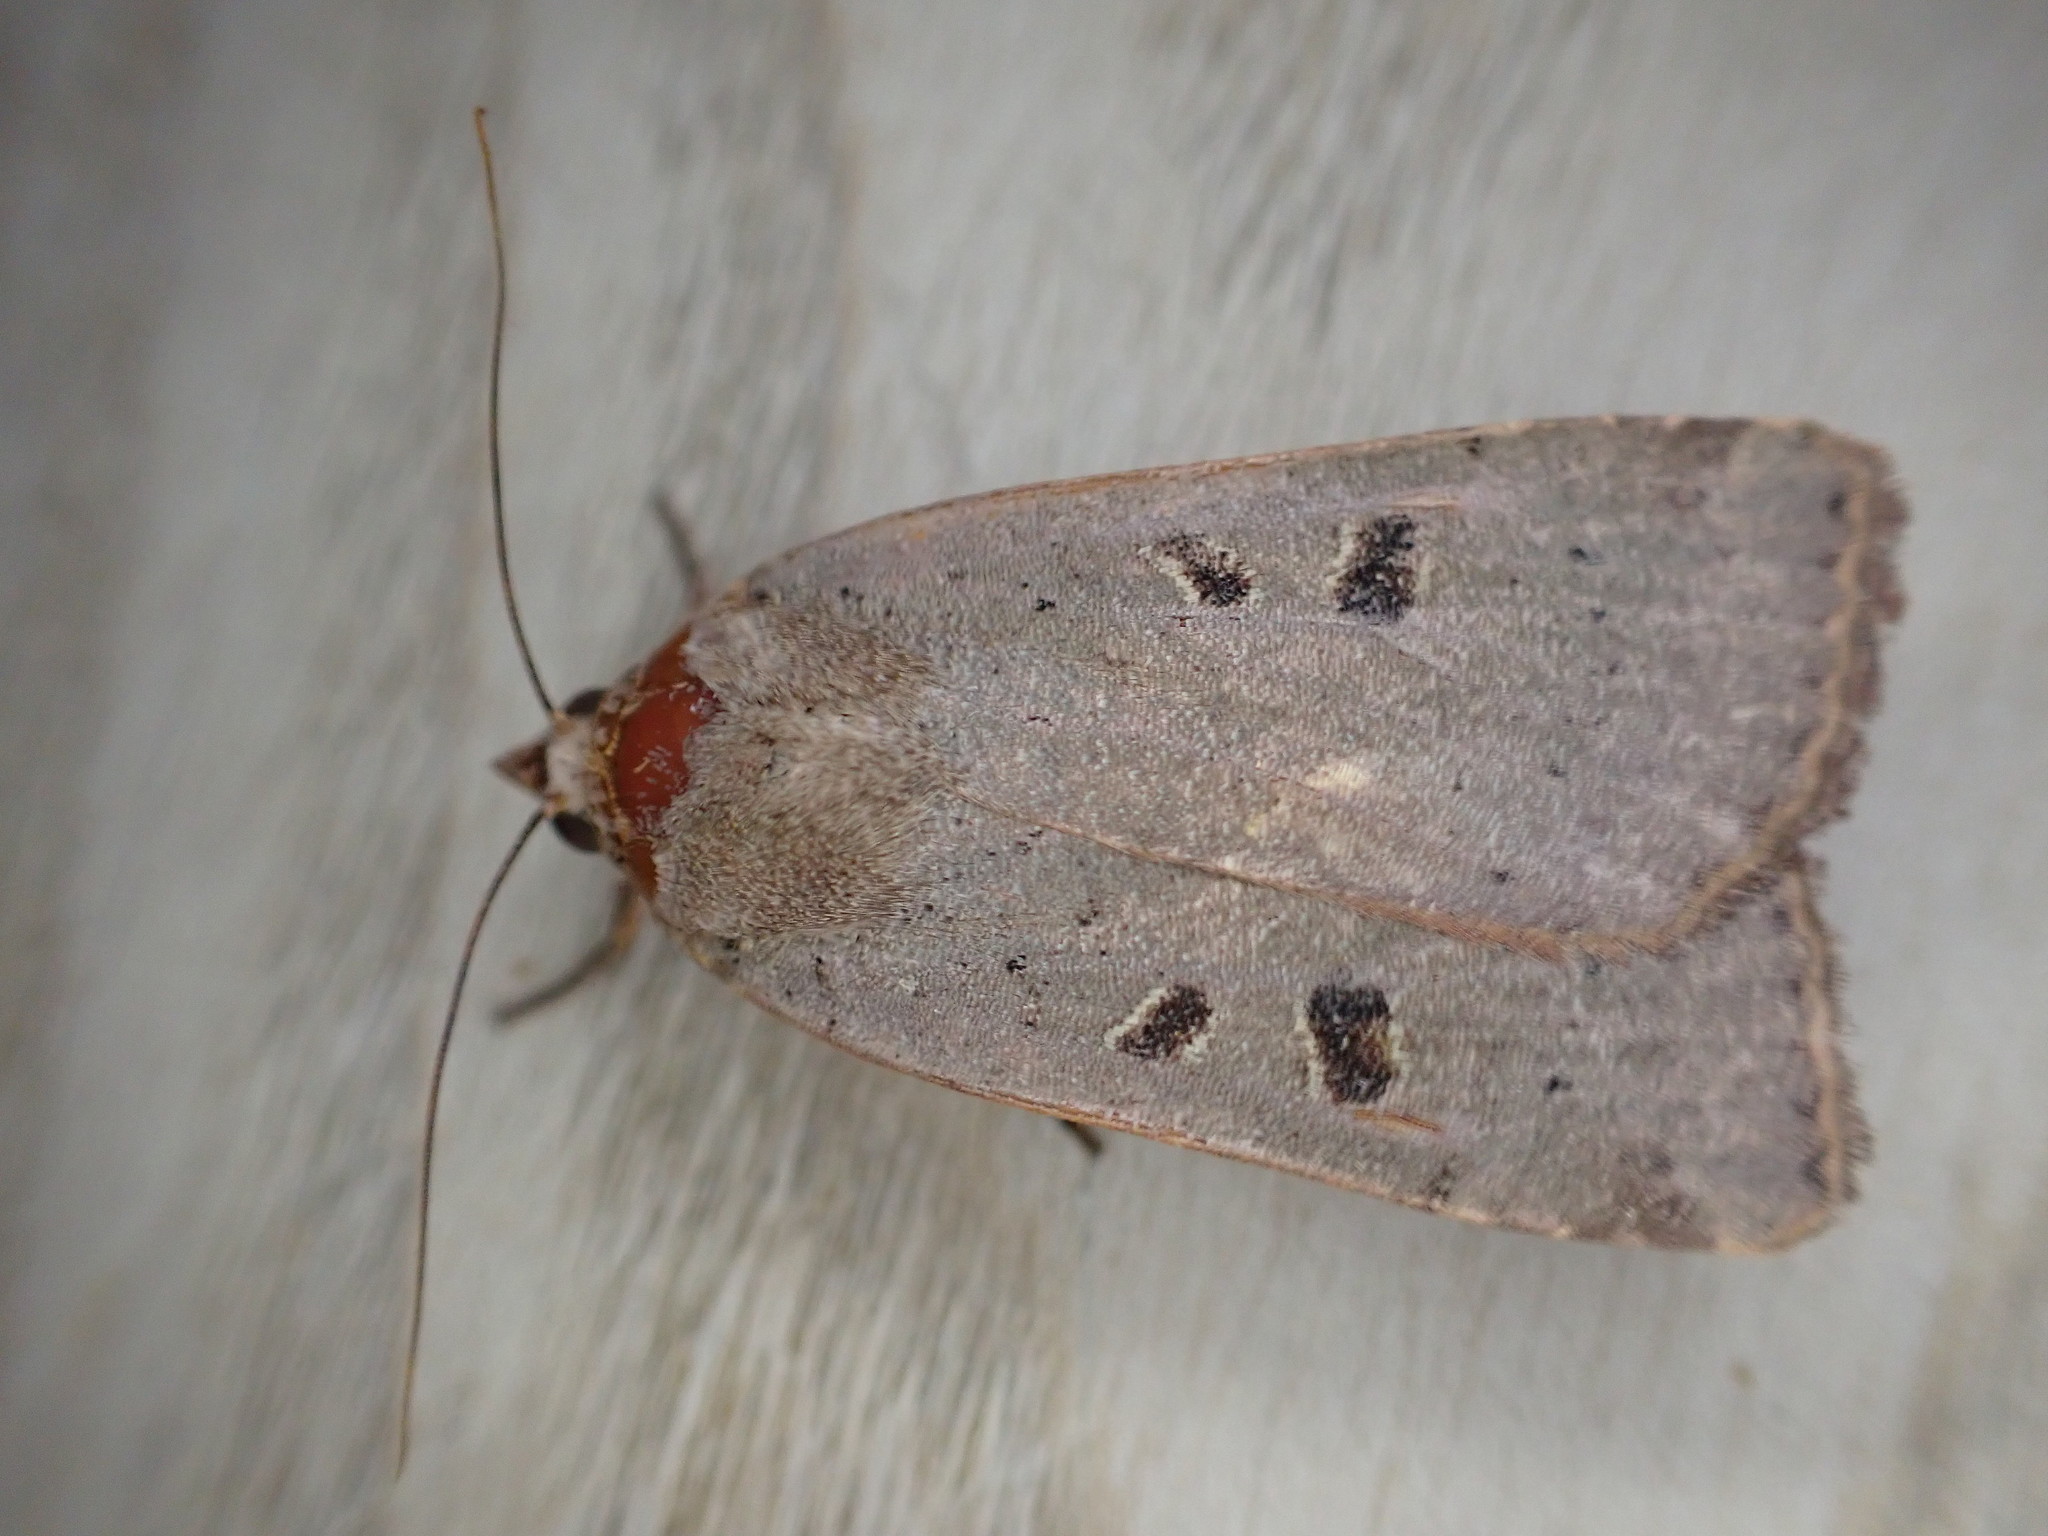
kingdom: Animalia
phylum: Arthropoda
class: Insecta
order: Lepidoptera
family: Noctuidae
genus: Noctua
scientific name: Noctua comes
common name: Lesser yellow underwing
